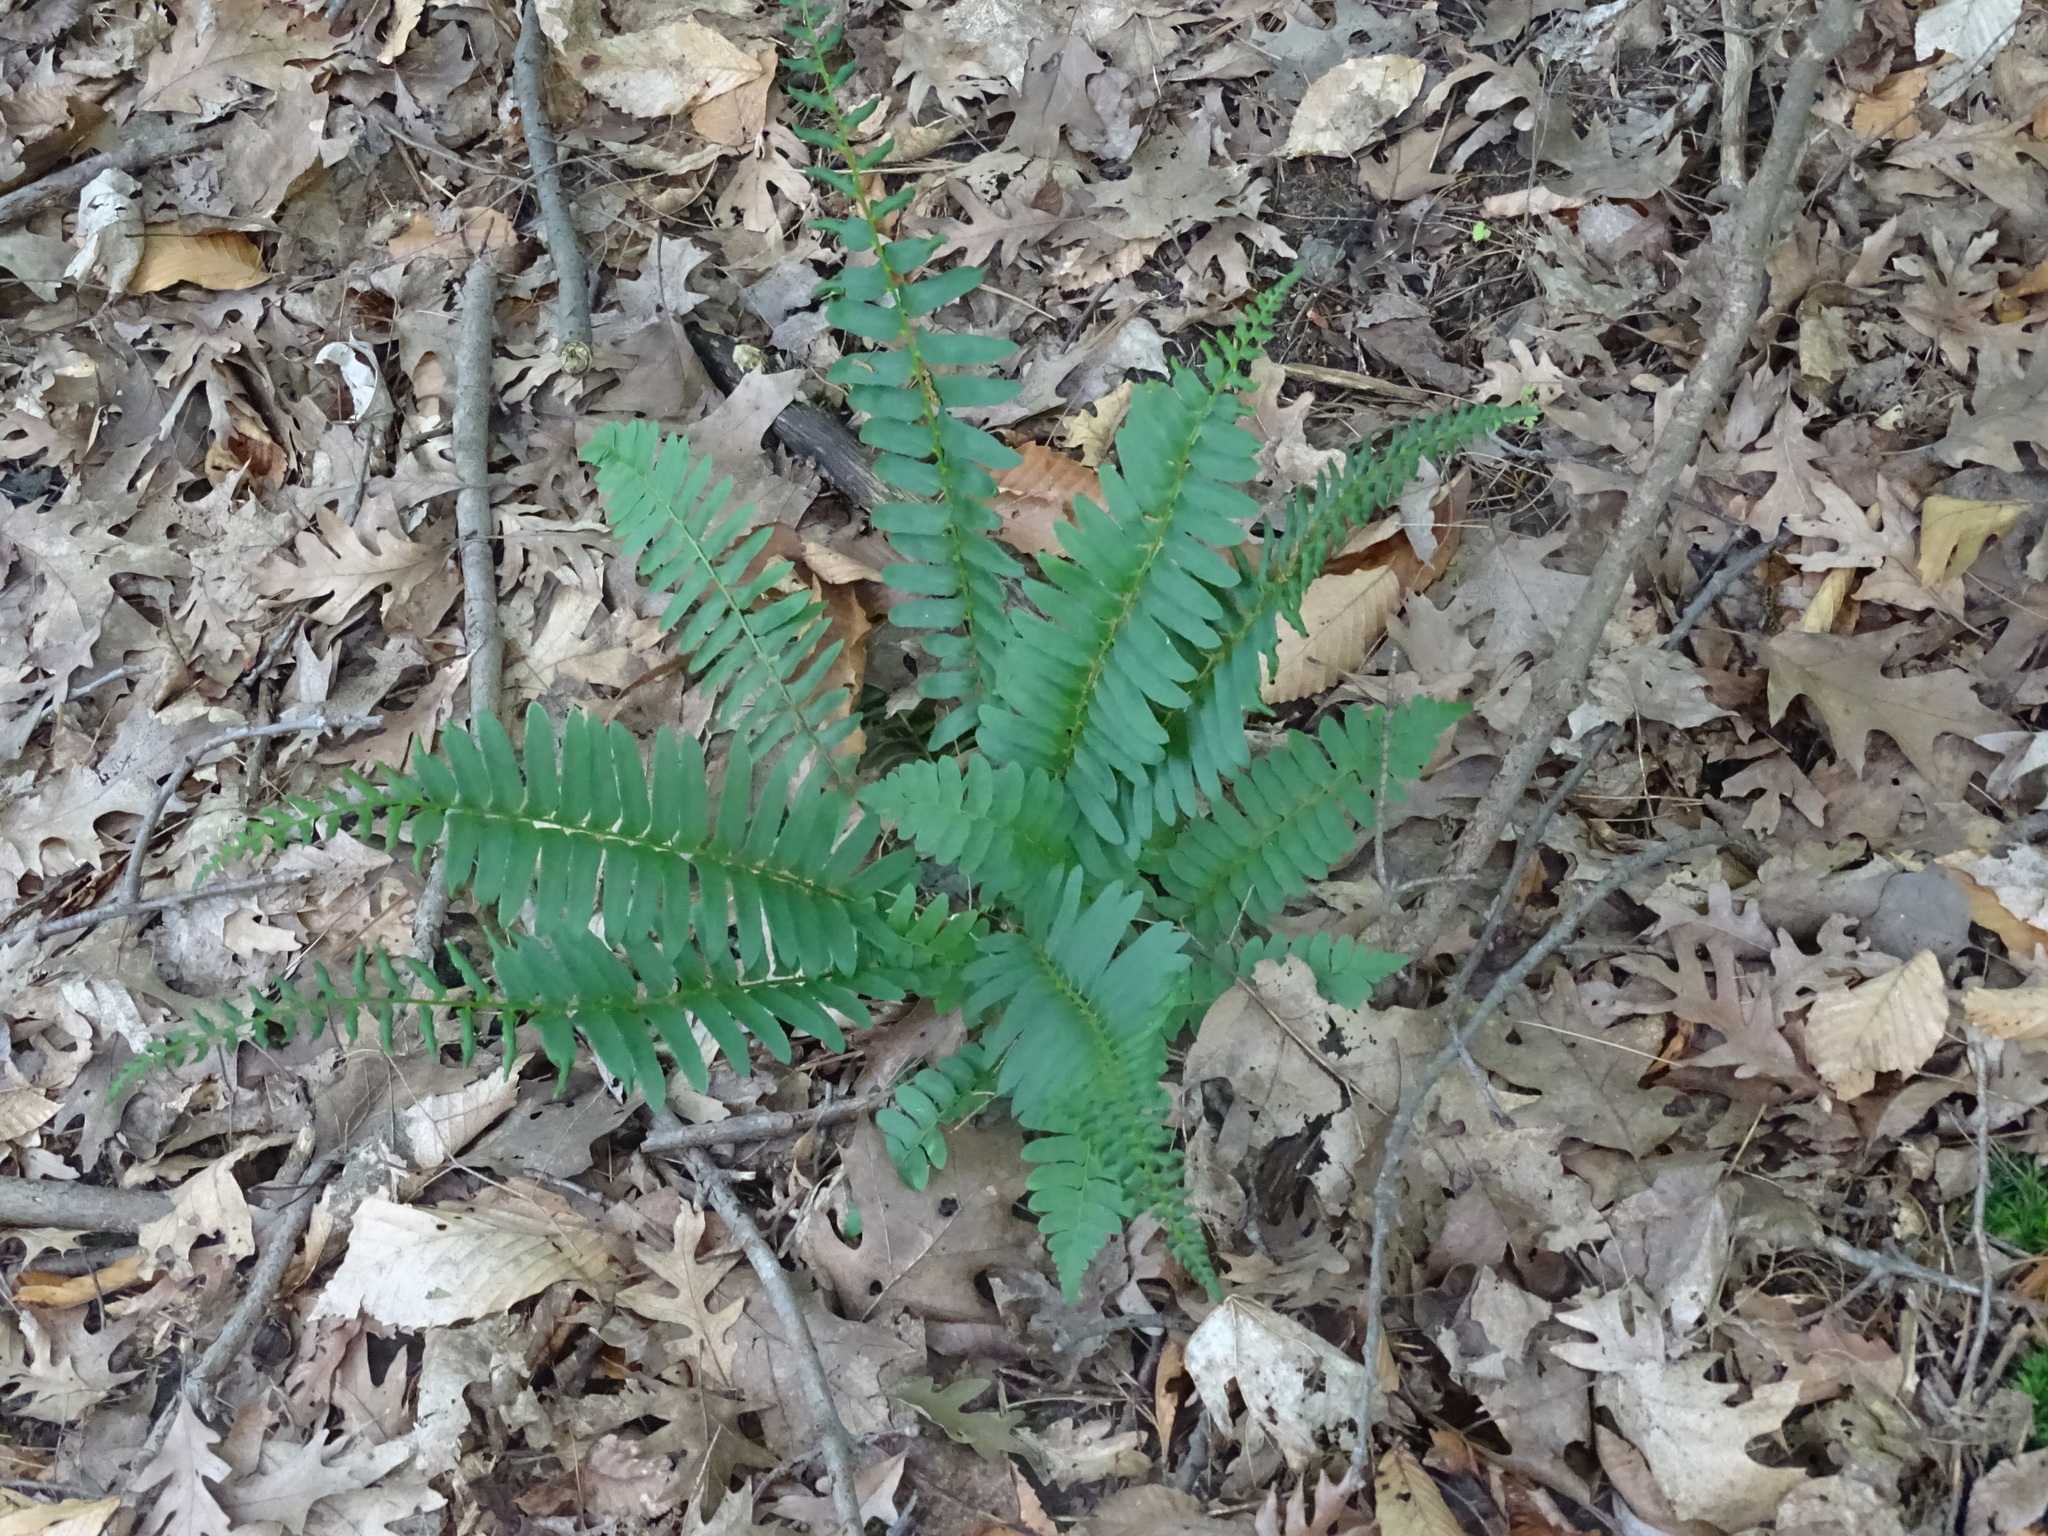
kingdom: Plantae
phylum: Tracheophyta
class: Polypodiopsida
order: Polypodiales
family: Dryopteridaceae
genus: Polystichum
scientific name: Polystichum acrostichoides
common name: Christmas fern
